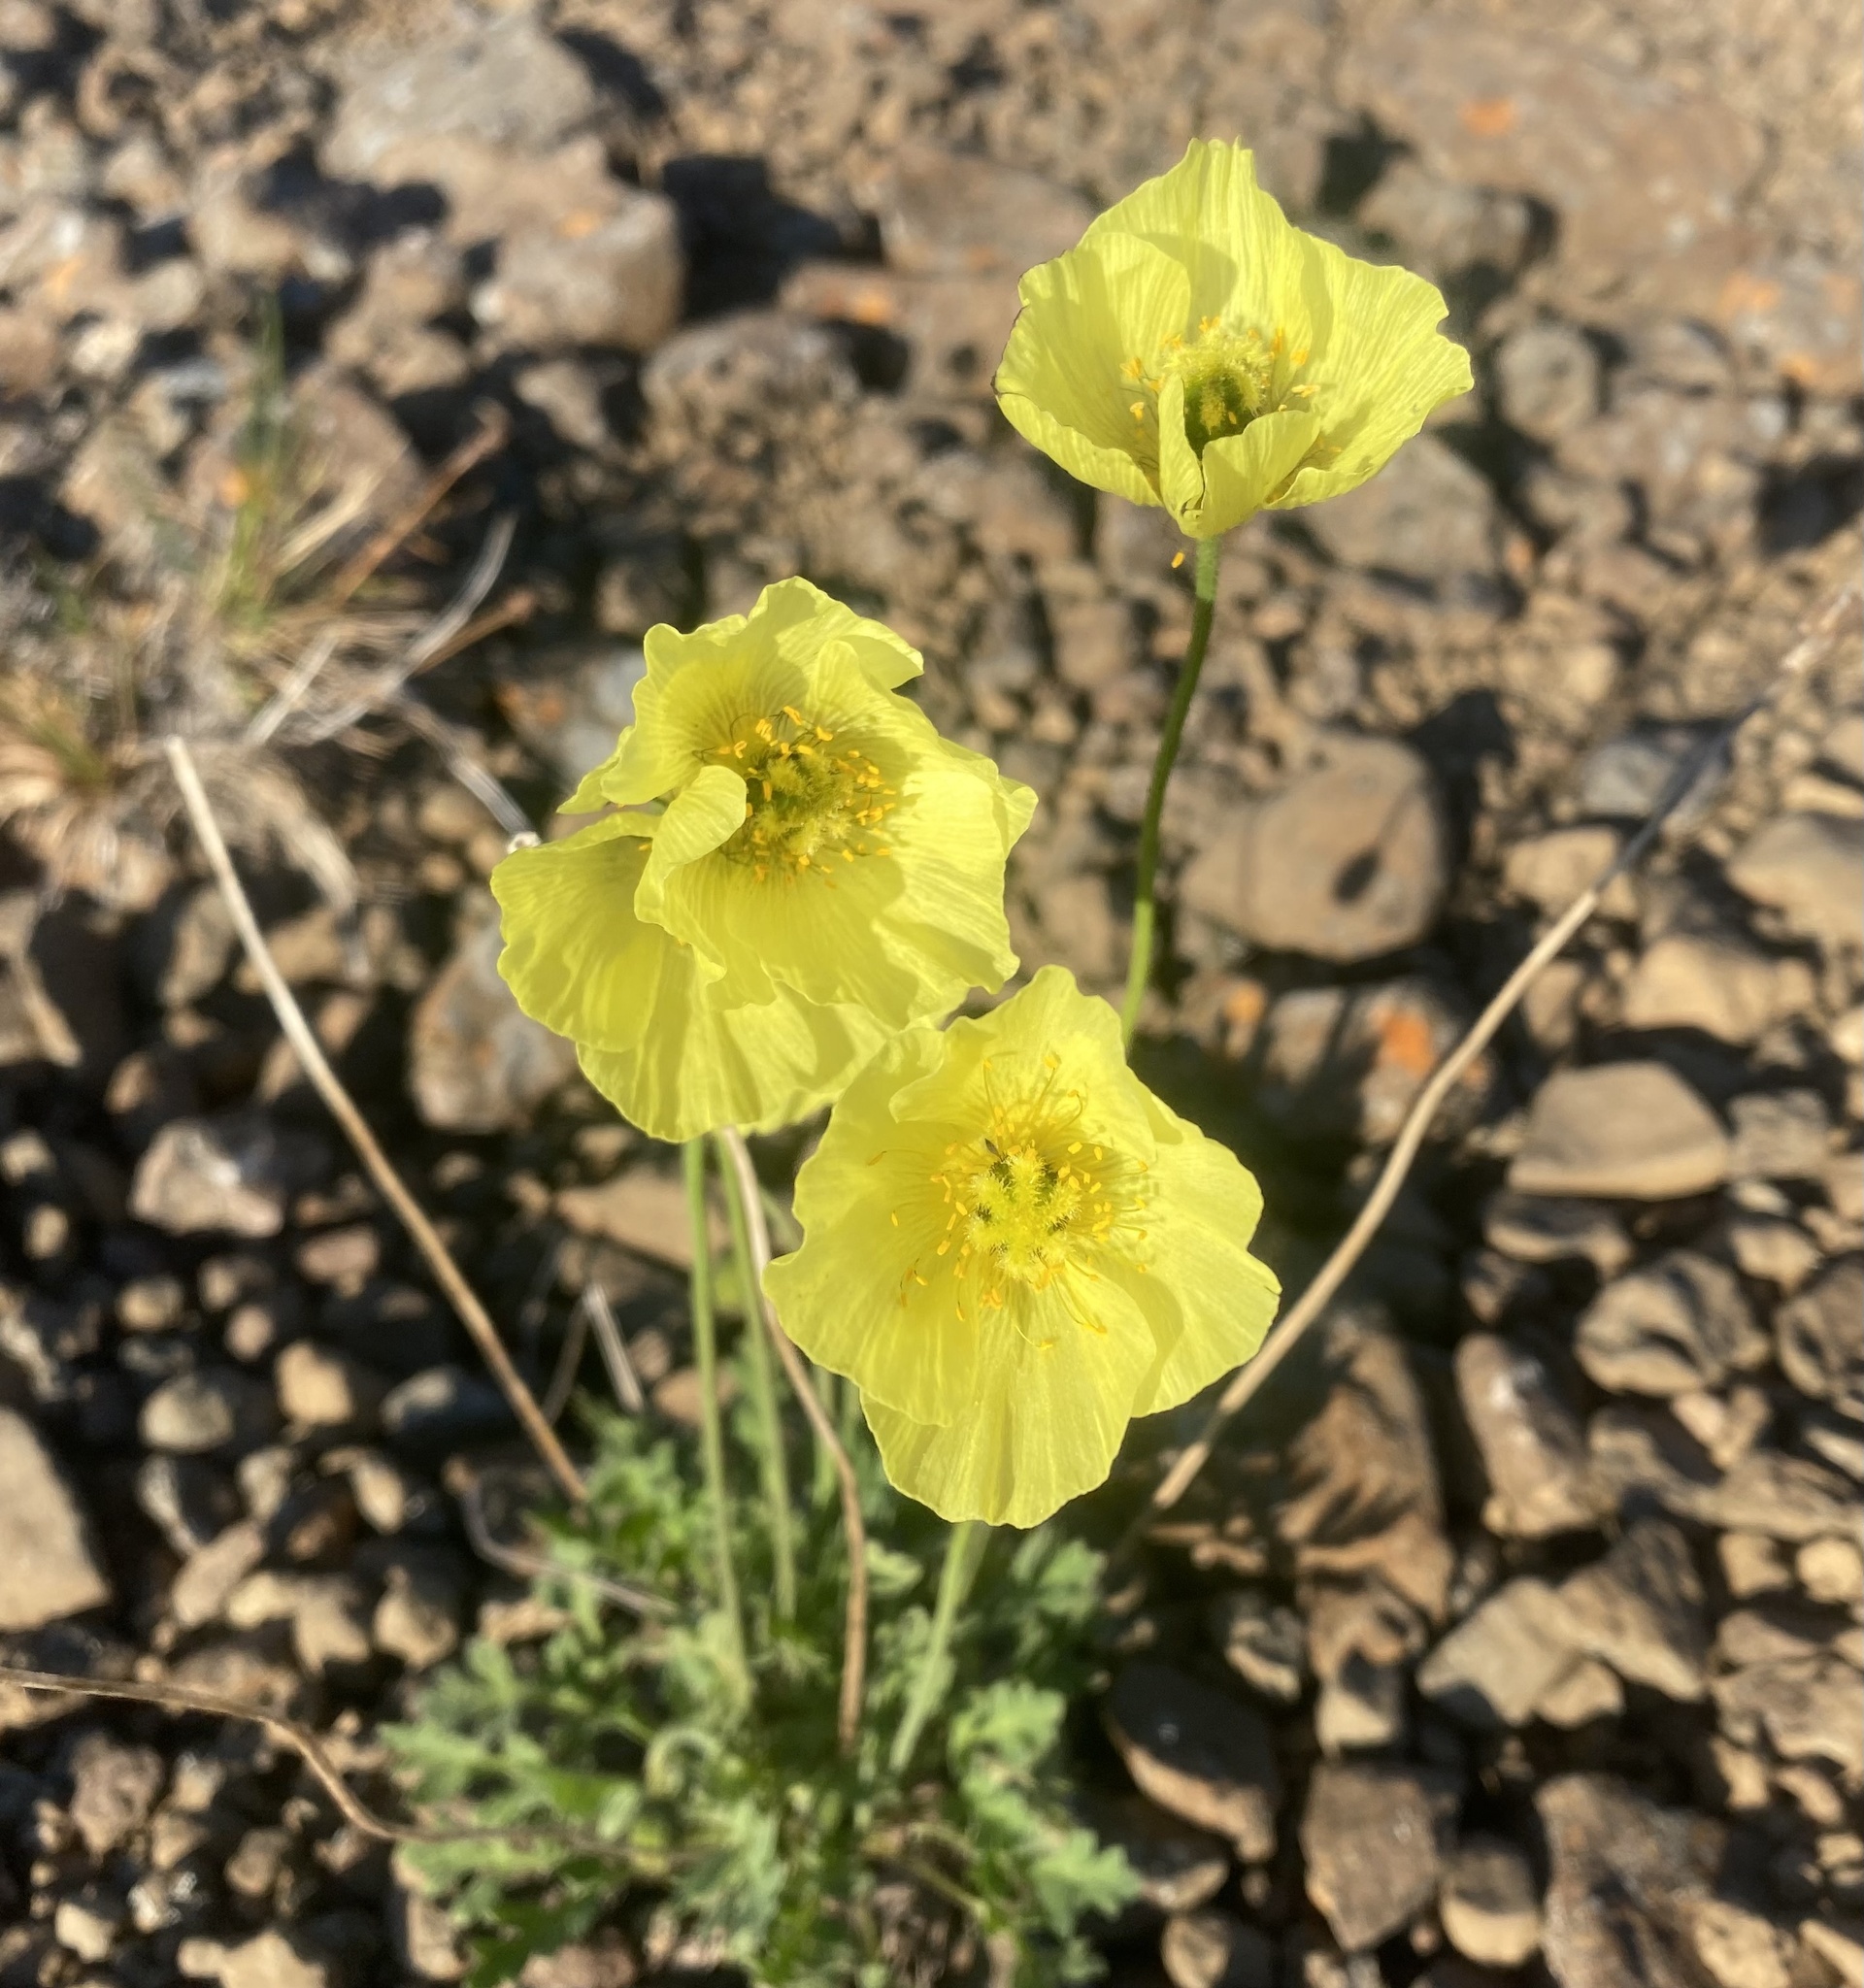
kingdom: Plantae
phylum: Tracheophyta
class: Magnoliopsida
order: Ranunculales
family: Papaveraceae
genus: Papaver
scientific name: Papaver pulvinatum
